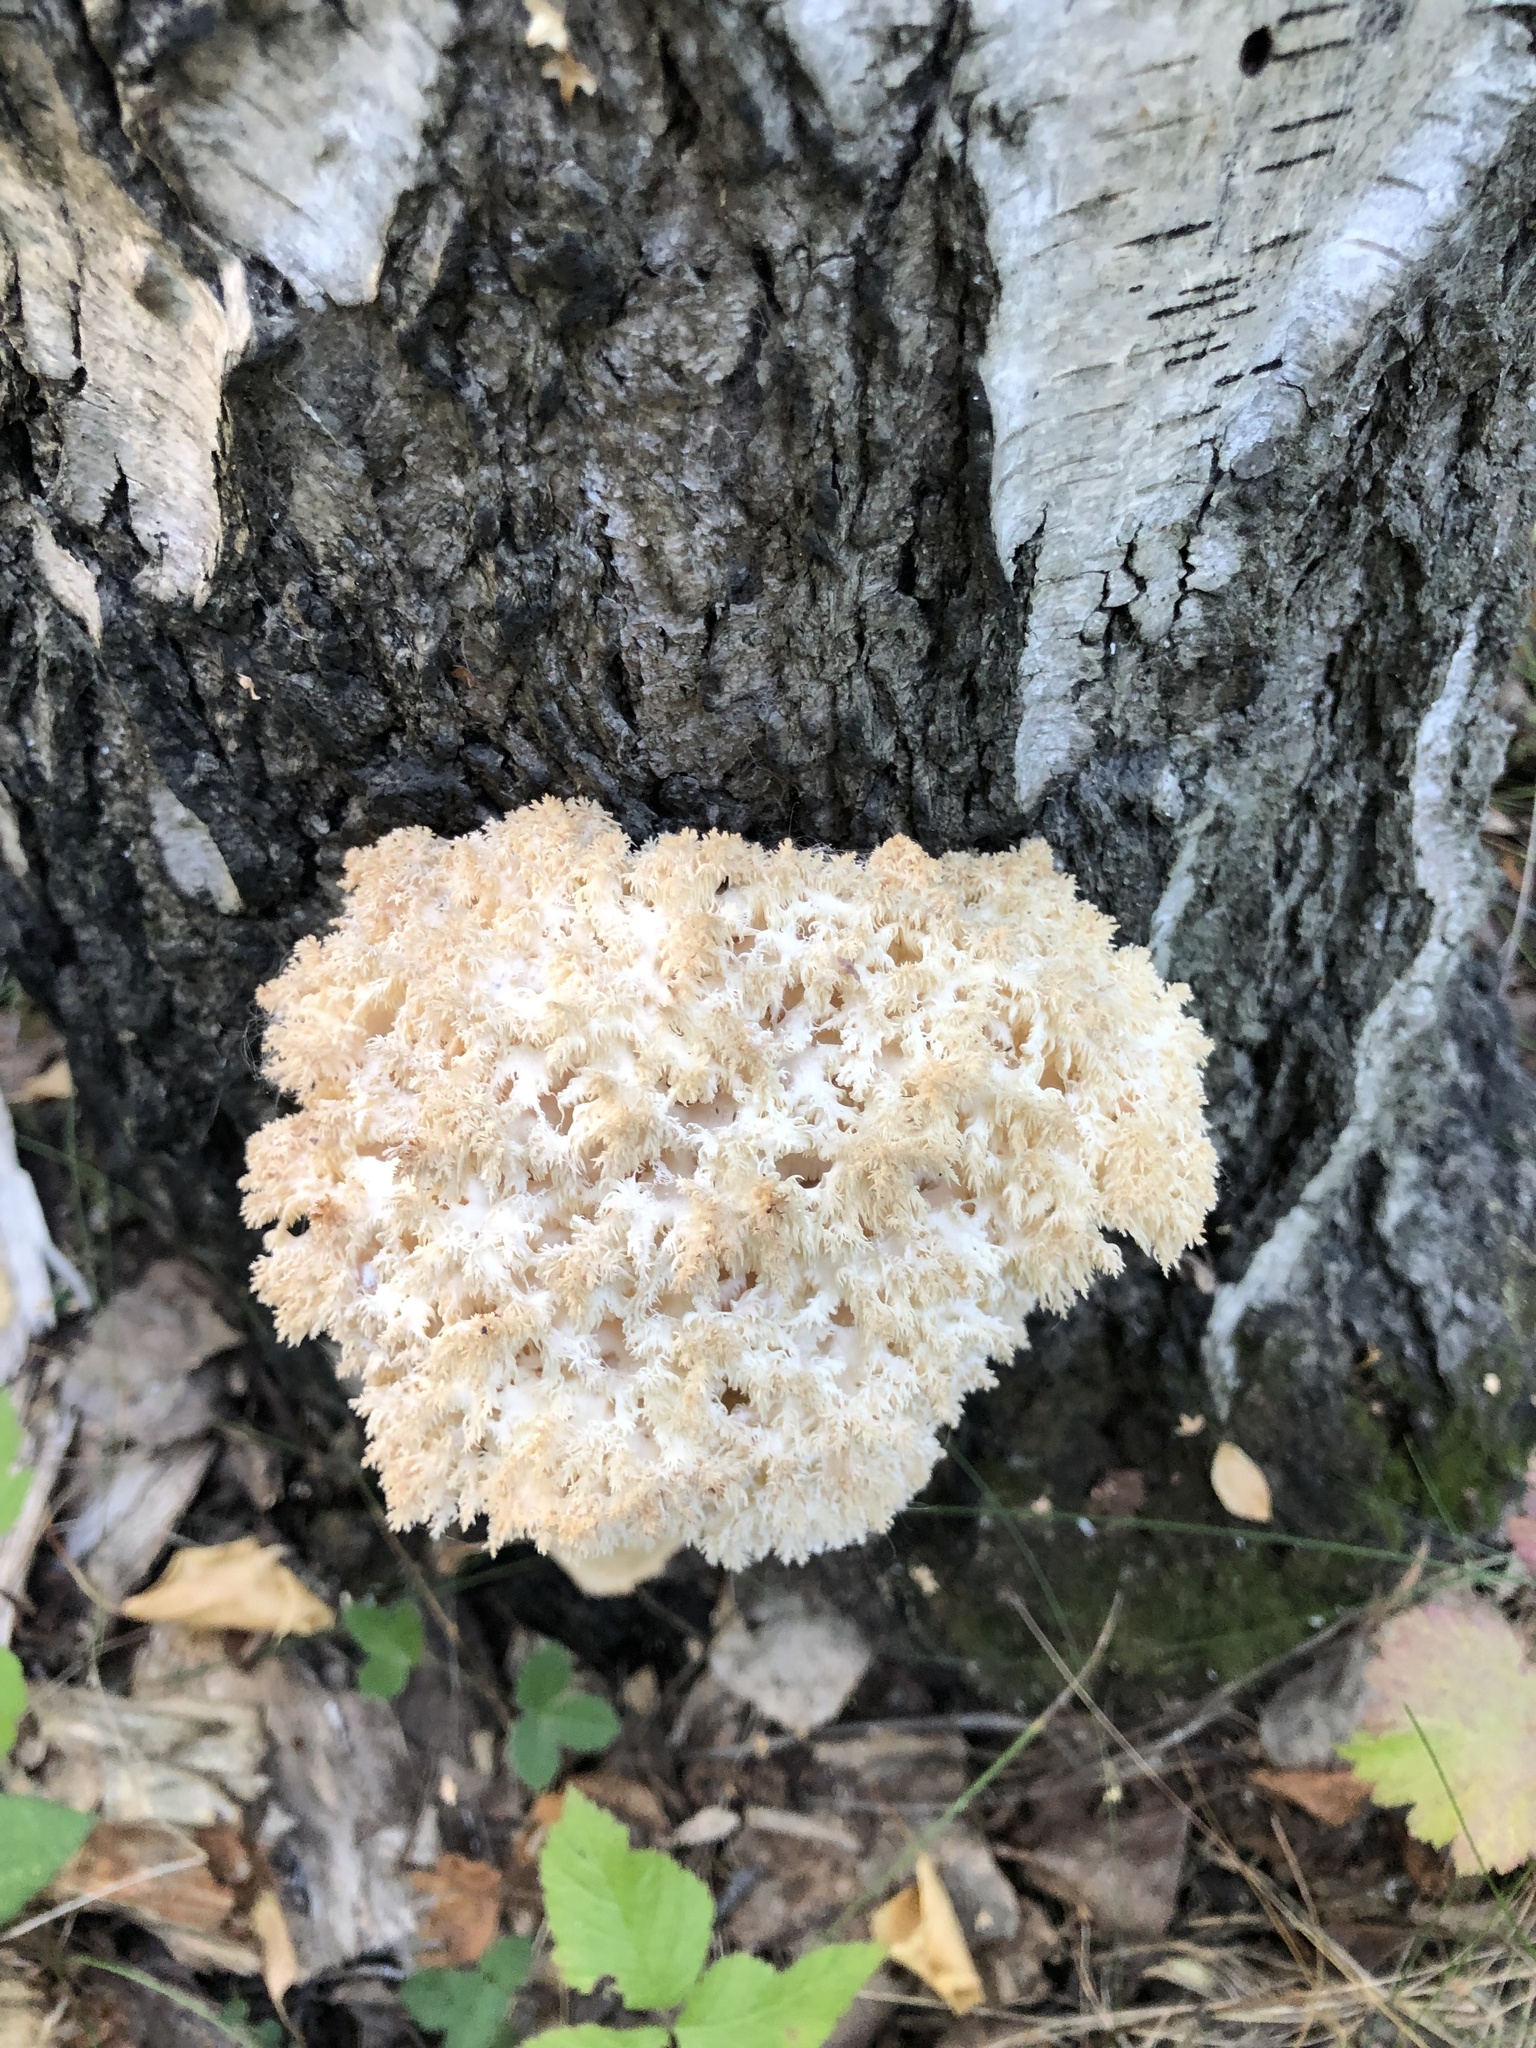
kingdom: Fungi
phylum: Basidiomycota
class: Agaricomycetes
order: Russulales
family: Hericiaceae
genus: Hericium
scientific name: Hericium coralloides
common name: Coral tooth
